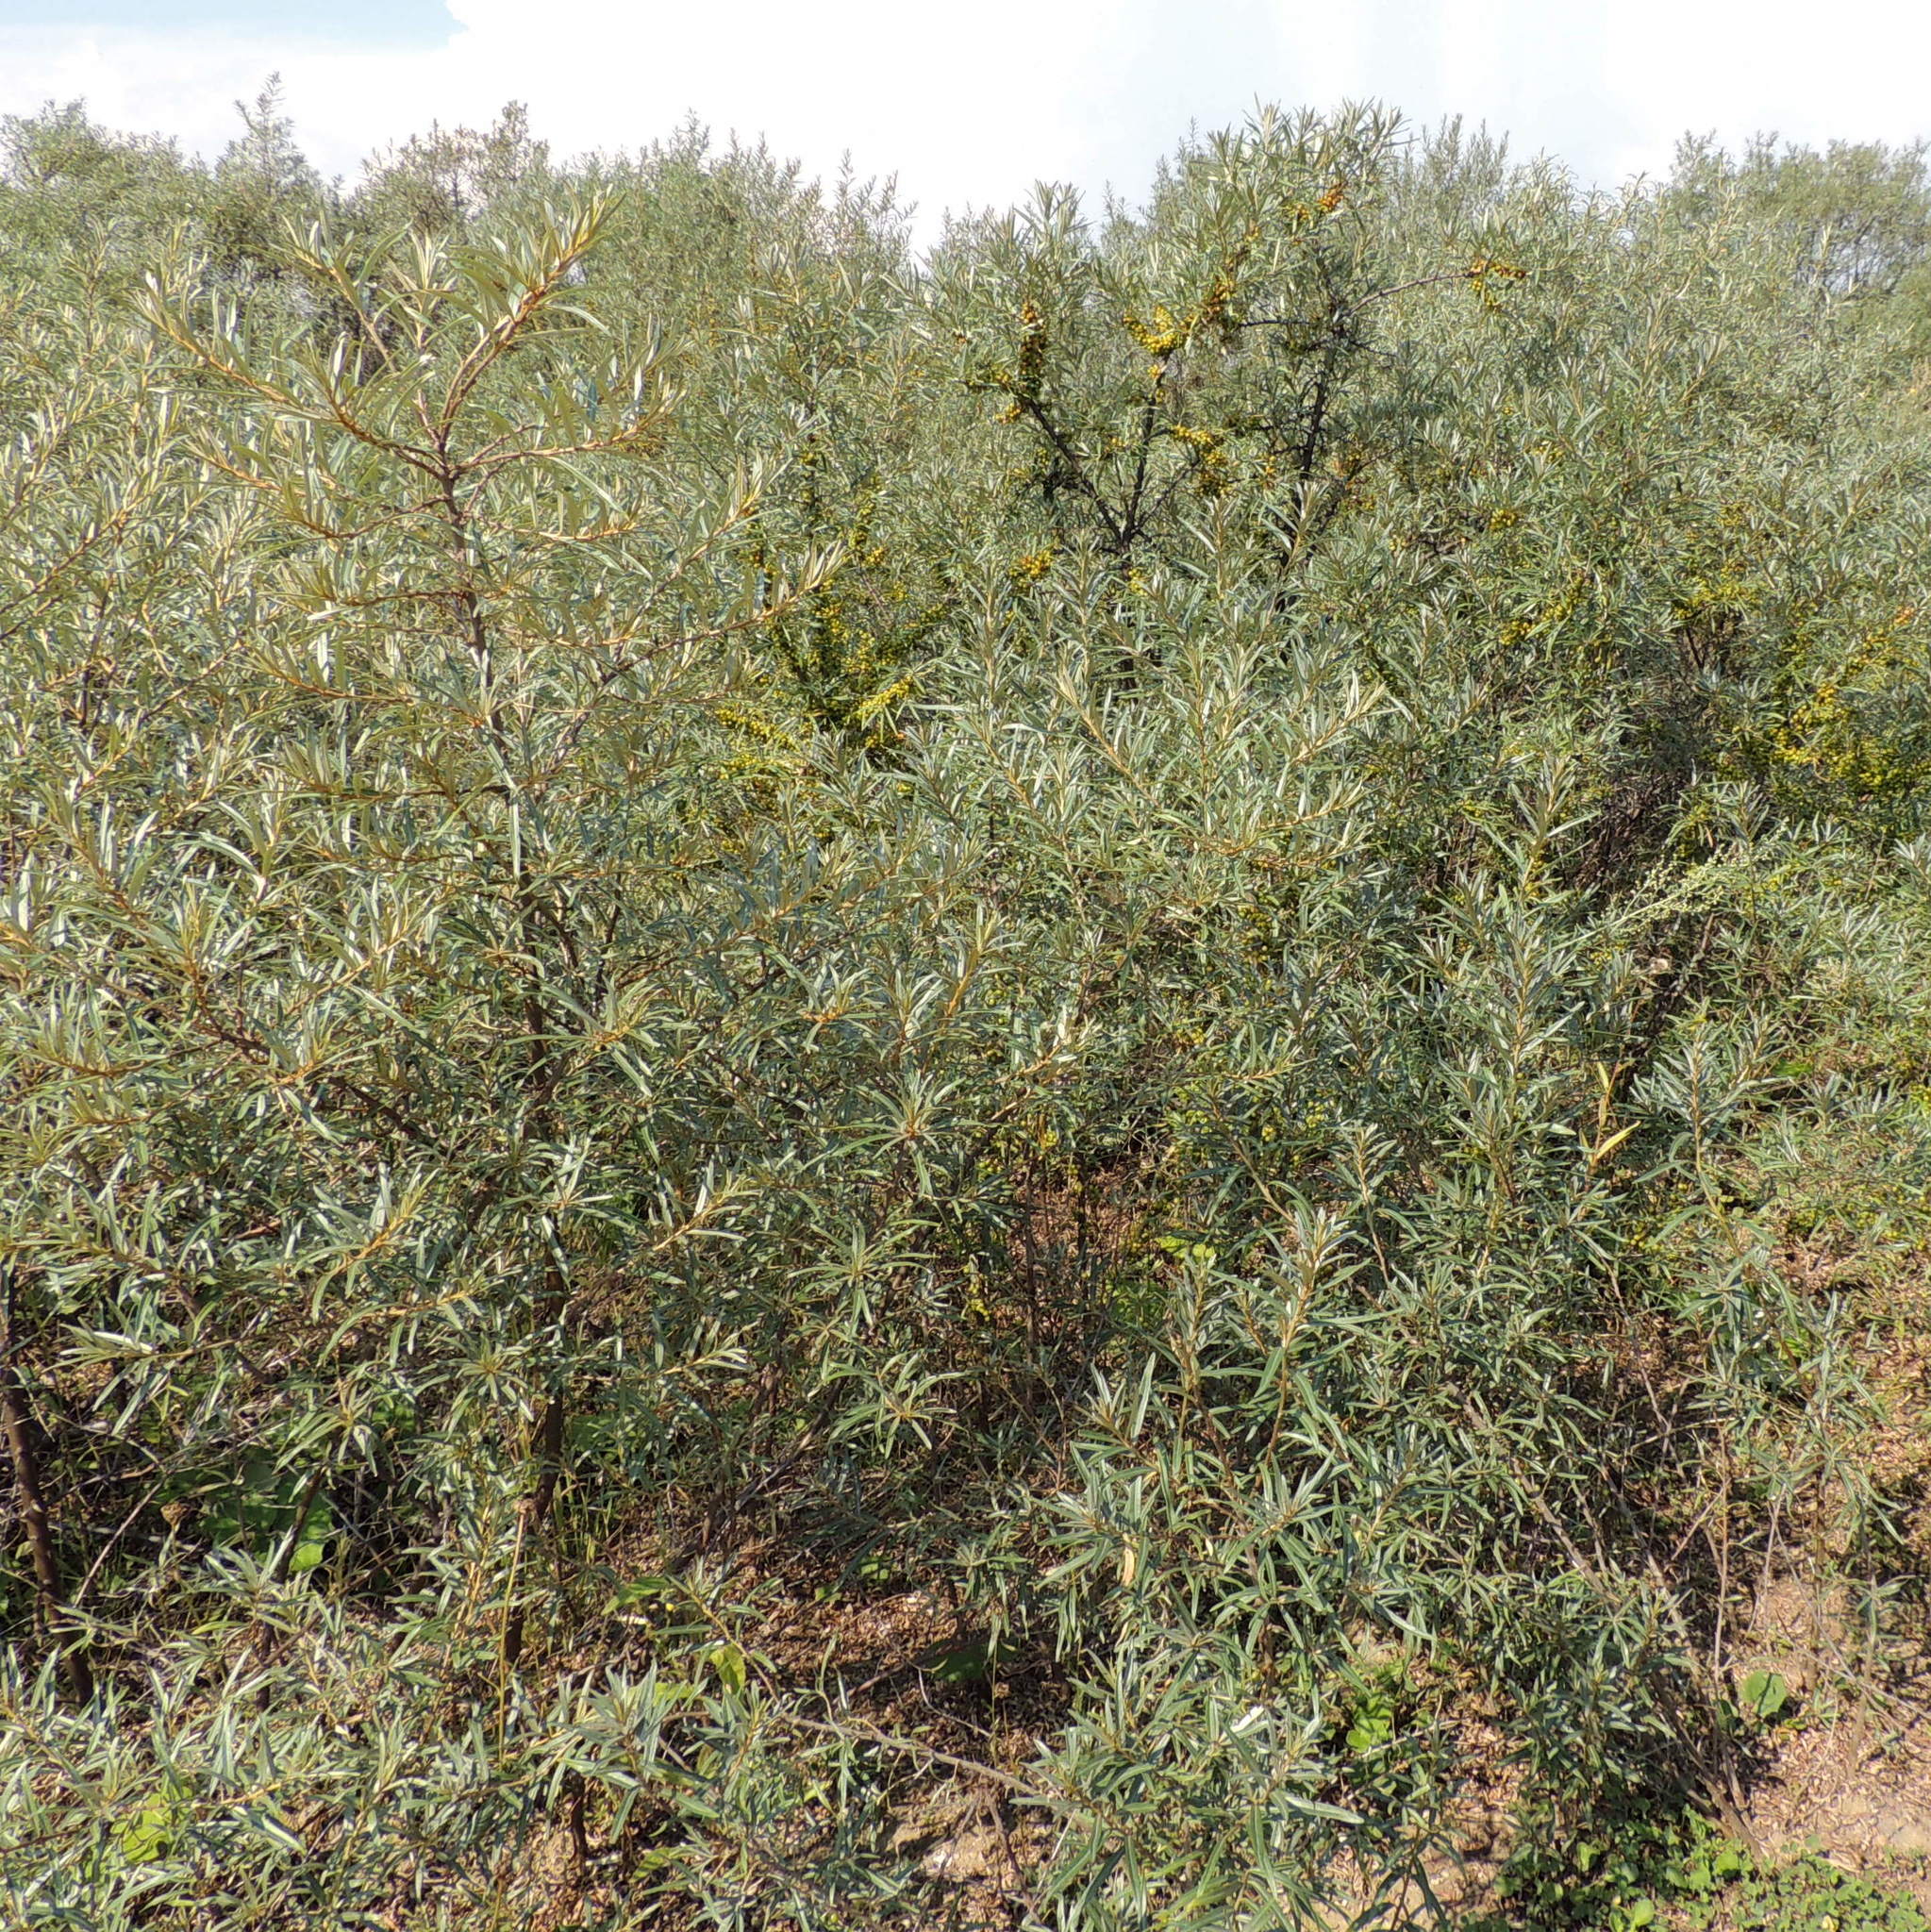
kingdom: Plantae
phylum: Tracheophyta
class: Magnoliopsida
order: Rosales
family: Elaeagnaceae
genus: Hippophae
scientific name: Hippophae rhamnoides
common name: Sea-buckthorn
